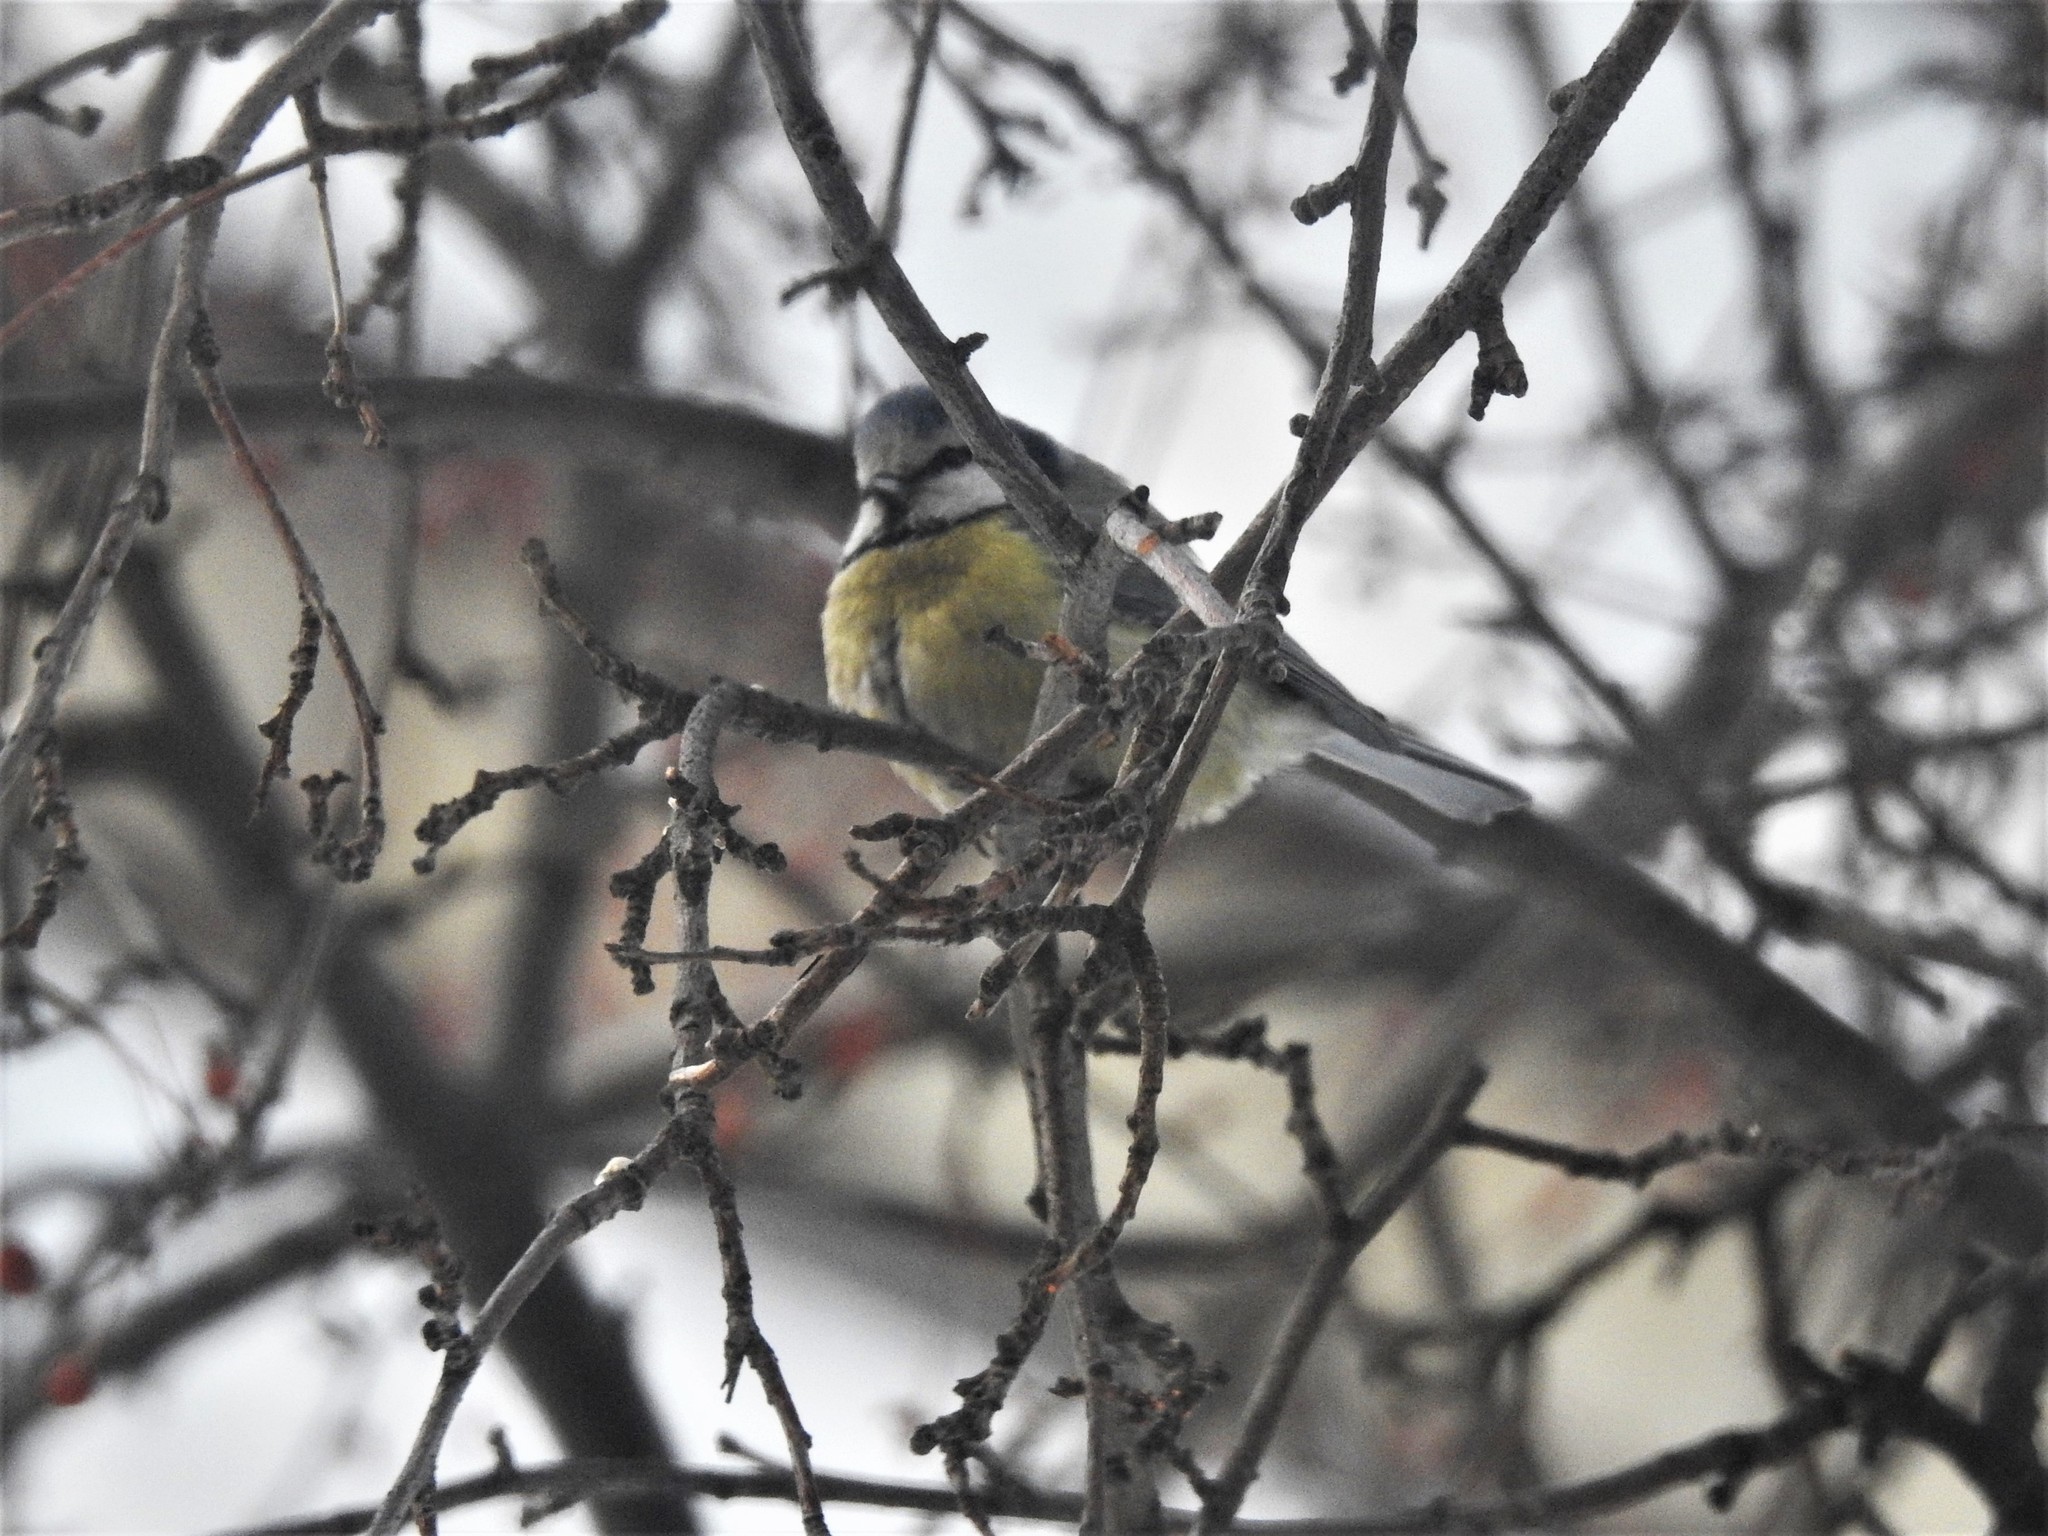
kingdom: Animalia
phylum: Chordata
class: Aves
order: Passeriformes
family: Paridae
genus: Cyanistes
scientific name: Cyanistes caeruleus
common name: Eurasian blue tit
